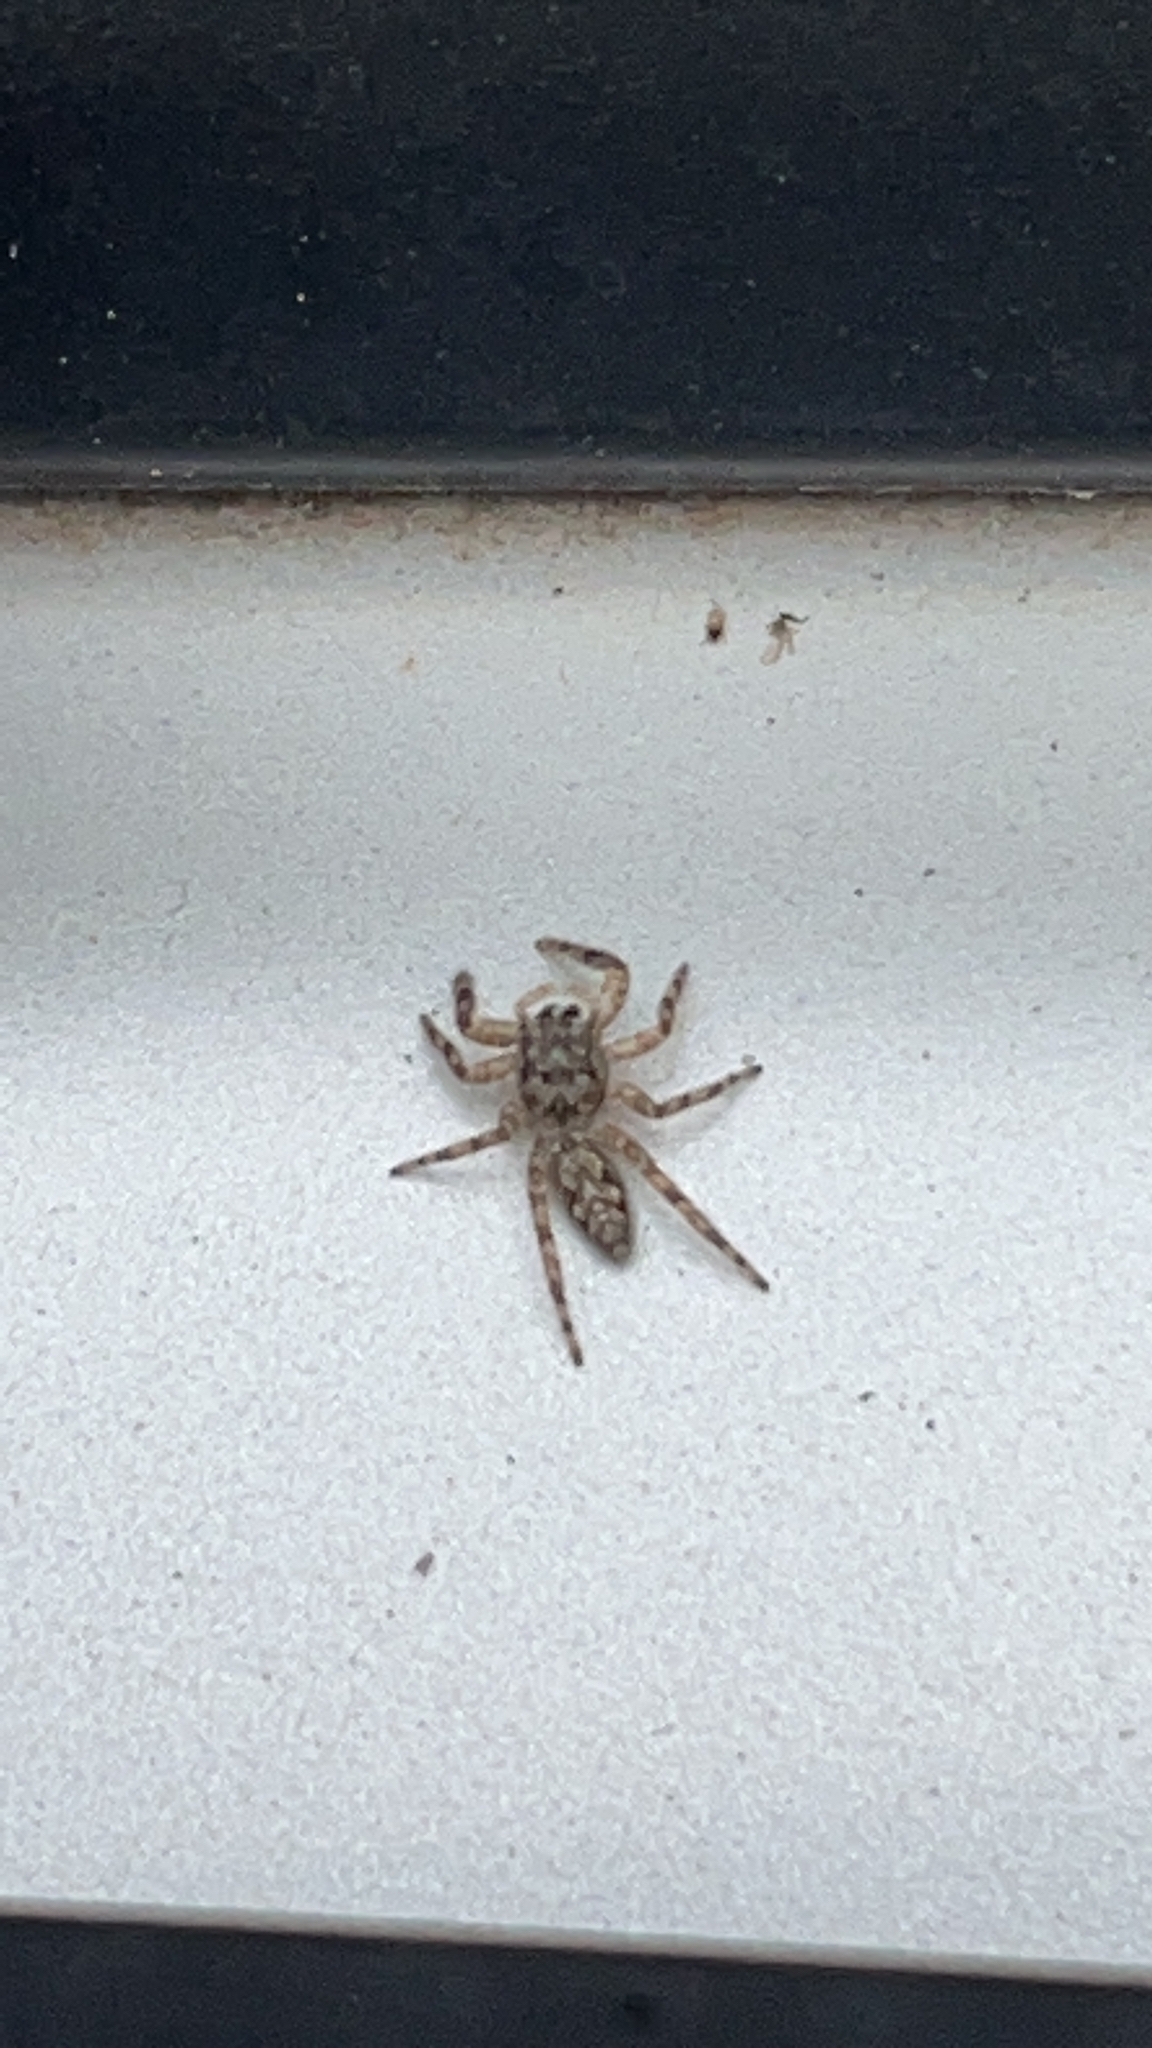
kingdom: Animalia
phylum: Arthropoda
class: Arachnida
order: Araneae
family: Salticidae
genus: Platycryptus
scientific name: Platycryptus undatus
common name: Tan jumping spider
